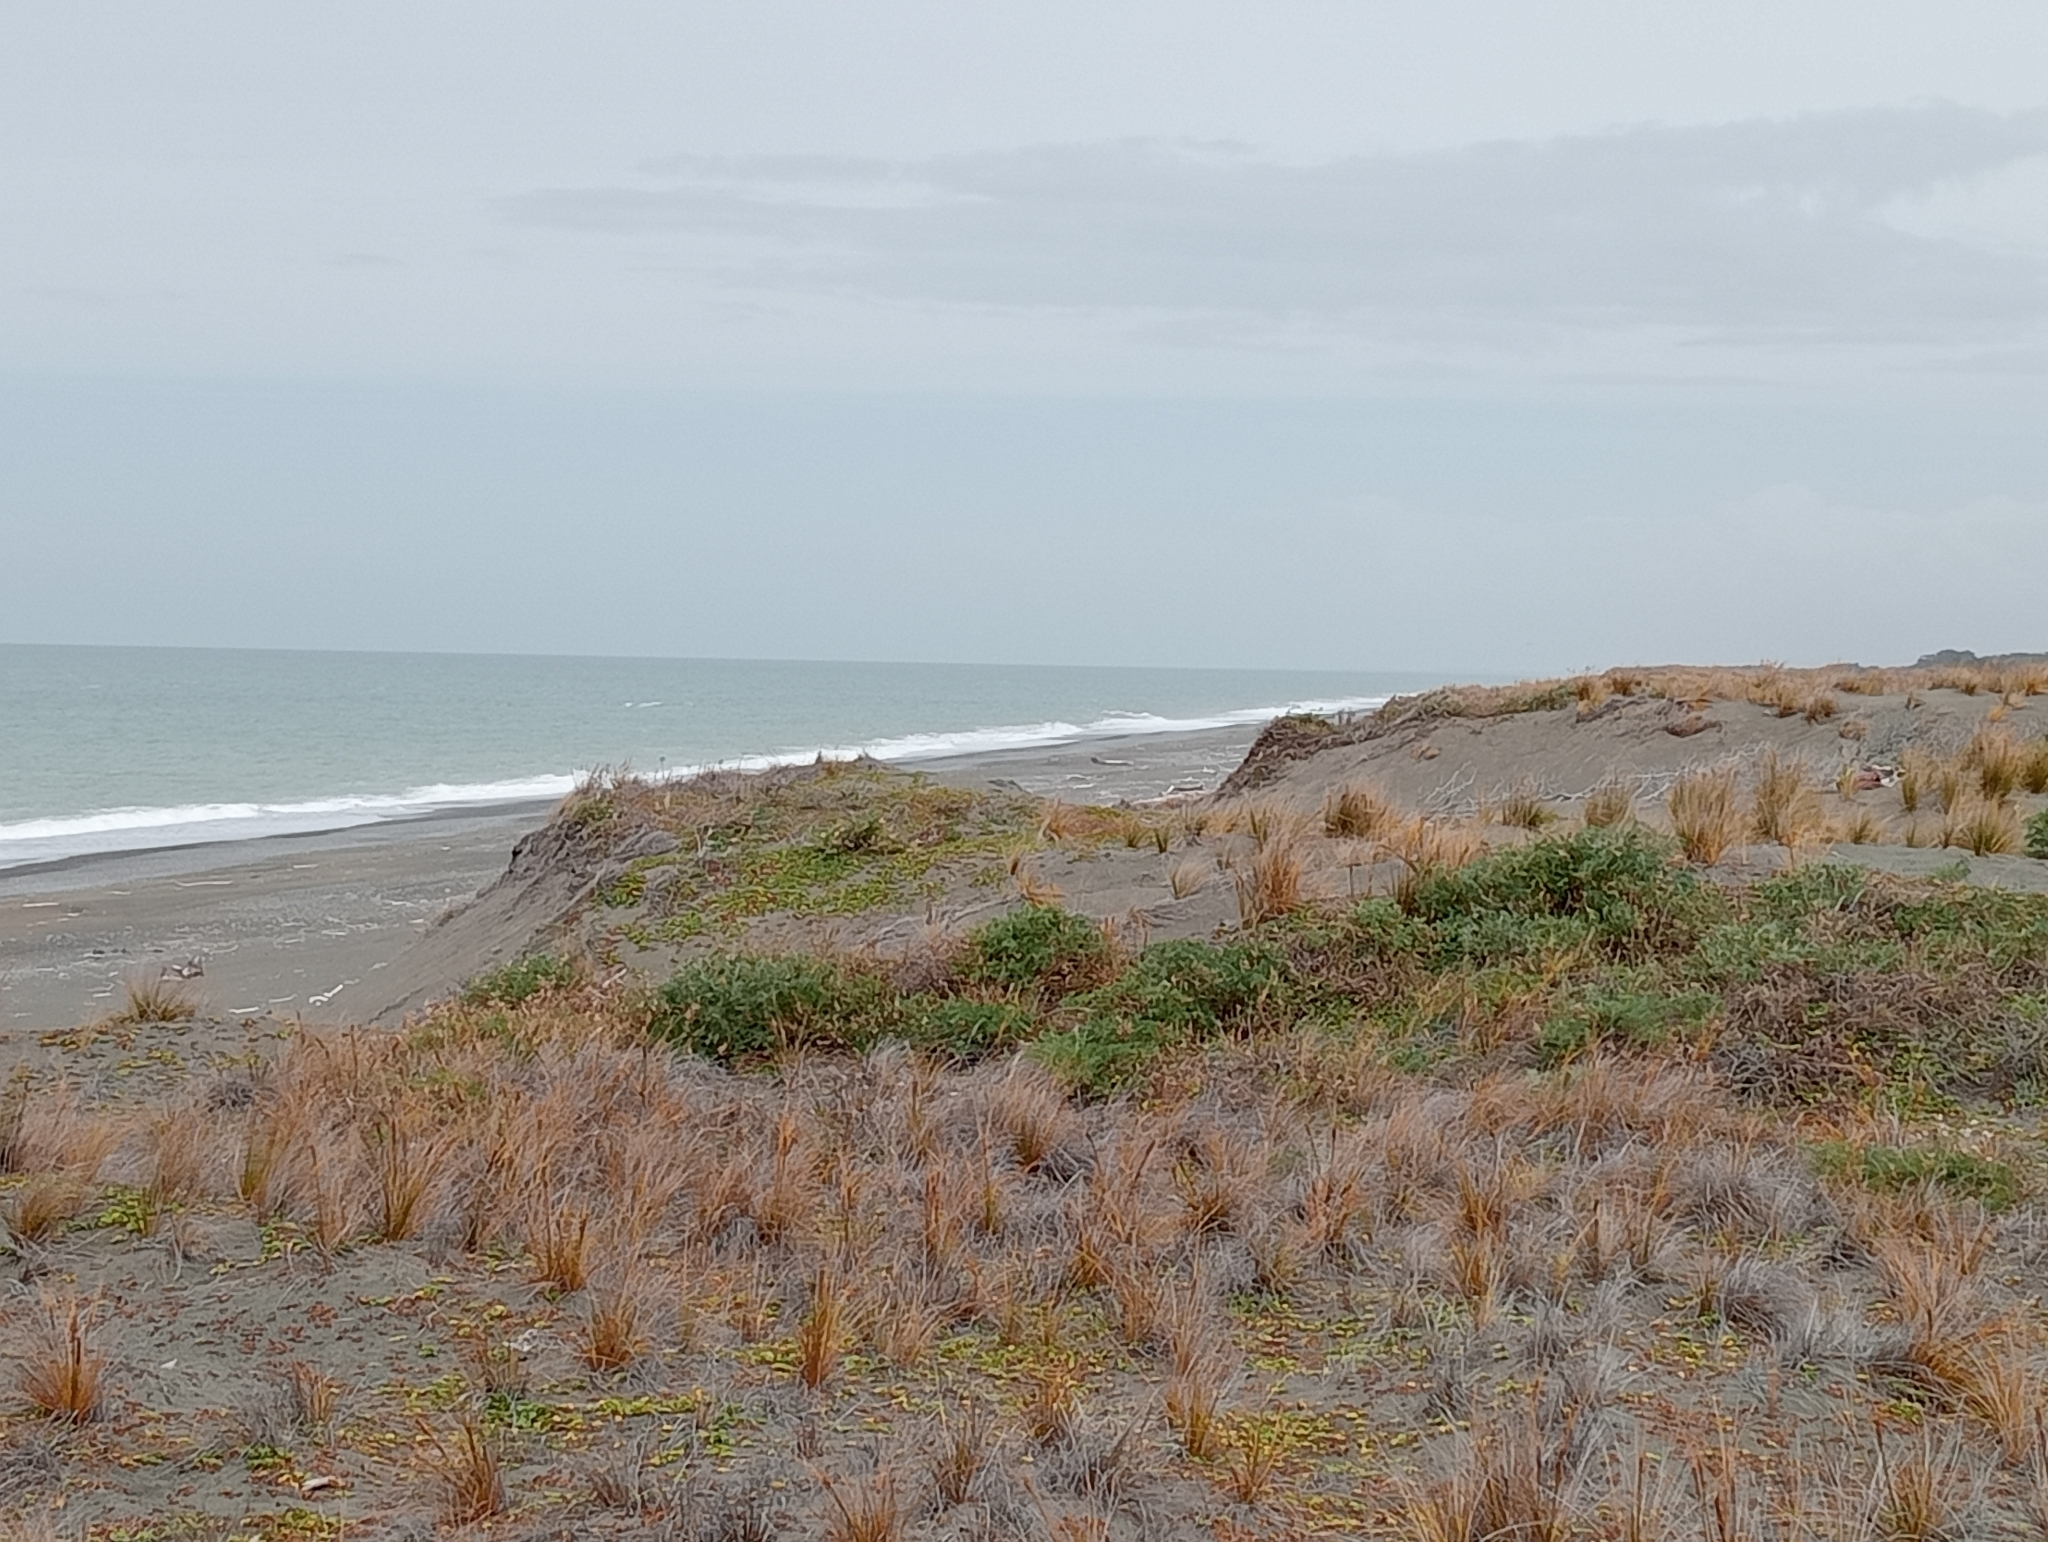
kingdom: Plantae
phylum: Tracheophyta
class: Liliopsida
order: Poales
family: Cyperaceae
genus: Ficinia
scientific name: Ficinia spiralis
